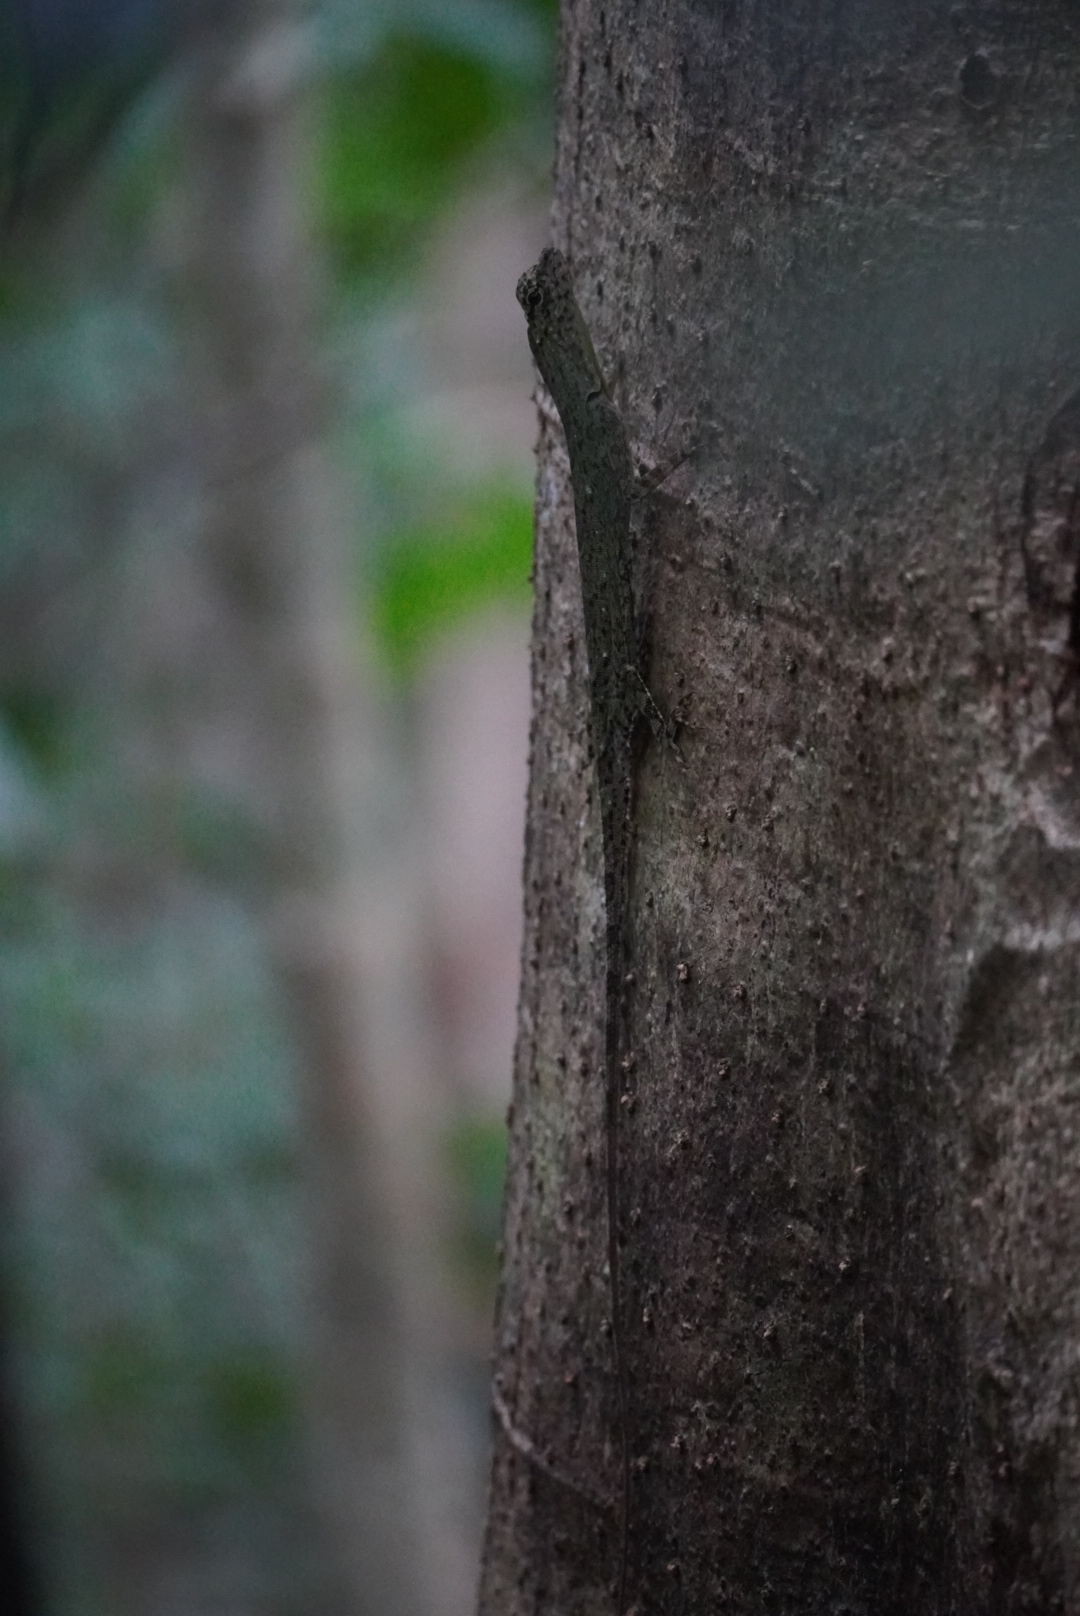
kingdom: Animalia
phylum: Chordata
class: Squamata
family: Agamidae
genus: Draco
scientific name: Draco indochinensis
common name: Indochinese flying lizard
